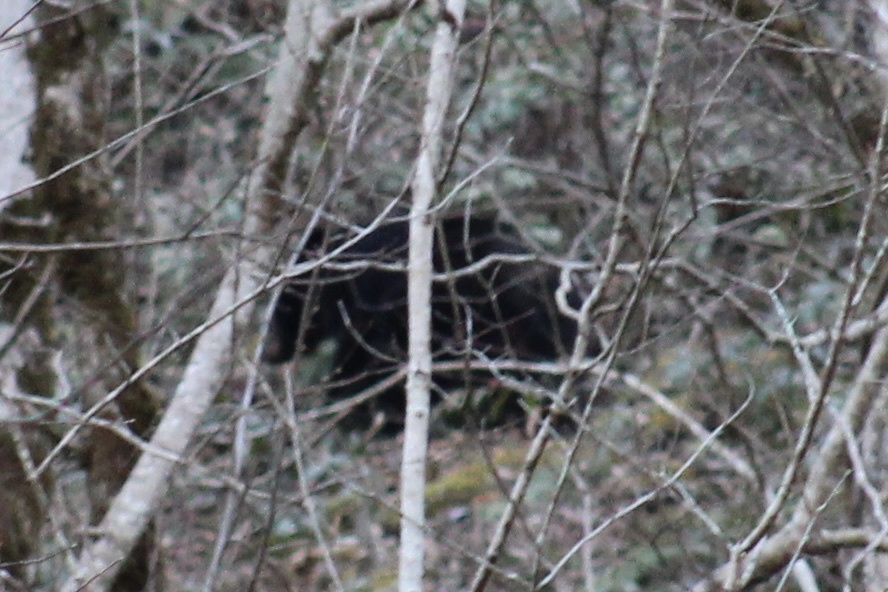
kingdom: Animalia
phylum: Chordata
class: Mammalia
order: Carnivora
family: Ursidae
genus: Ursus
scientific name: Ursus americanus
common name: American black bear
